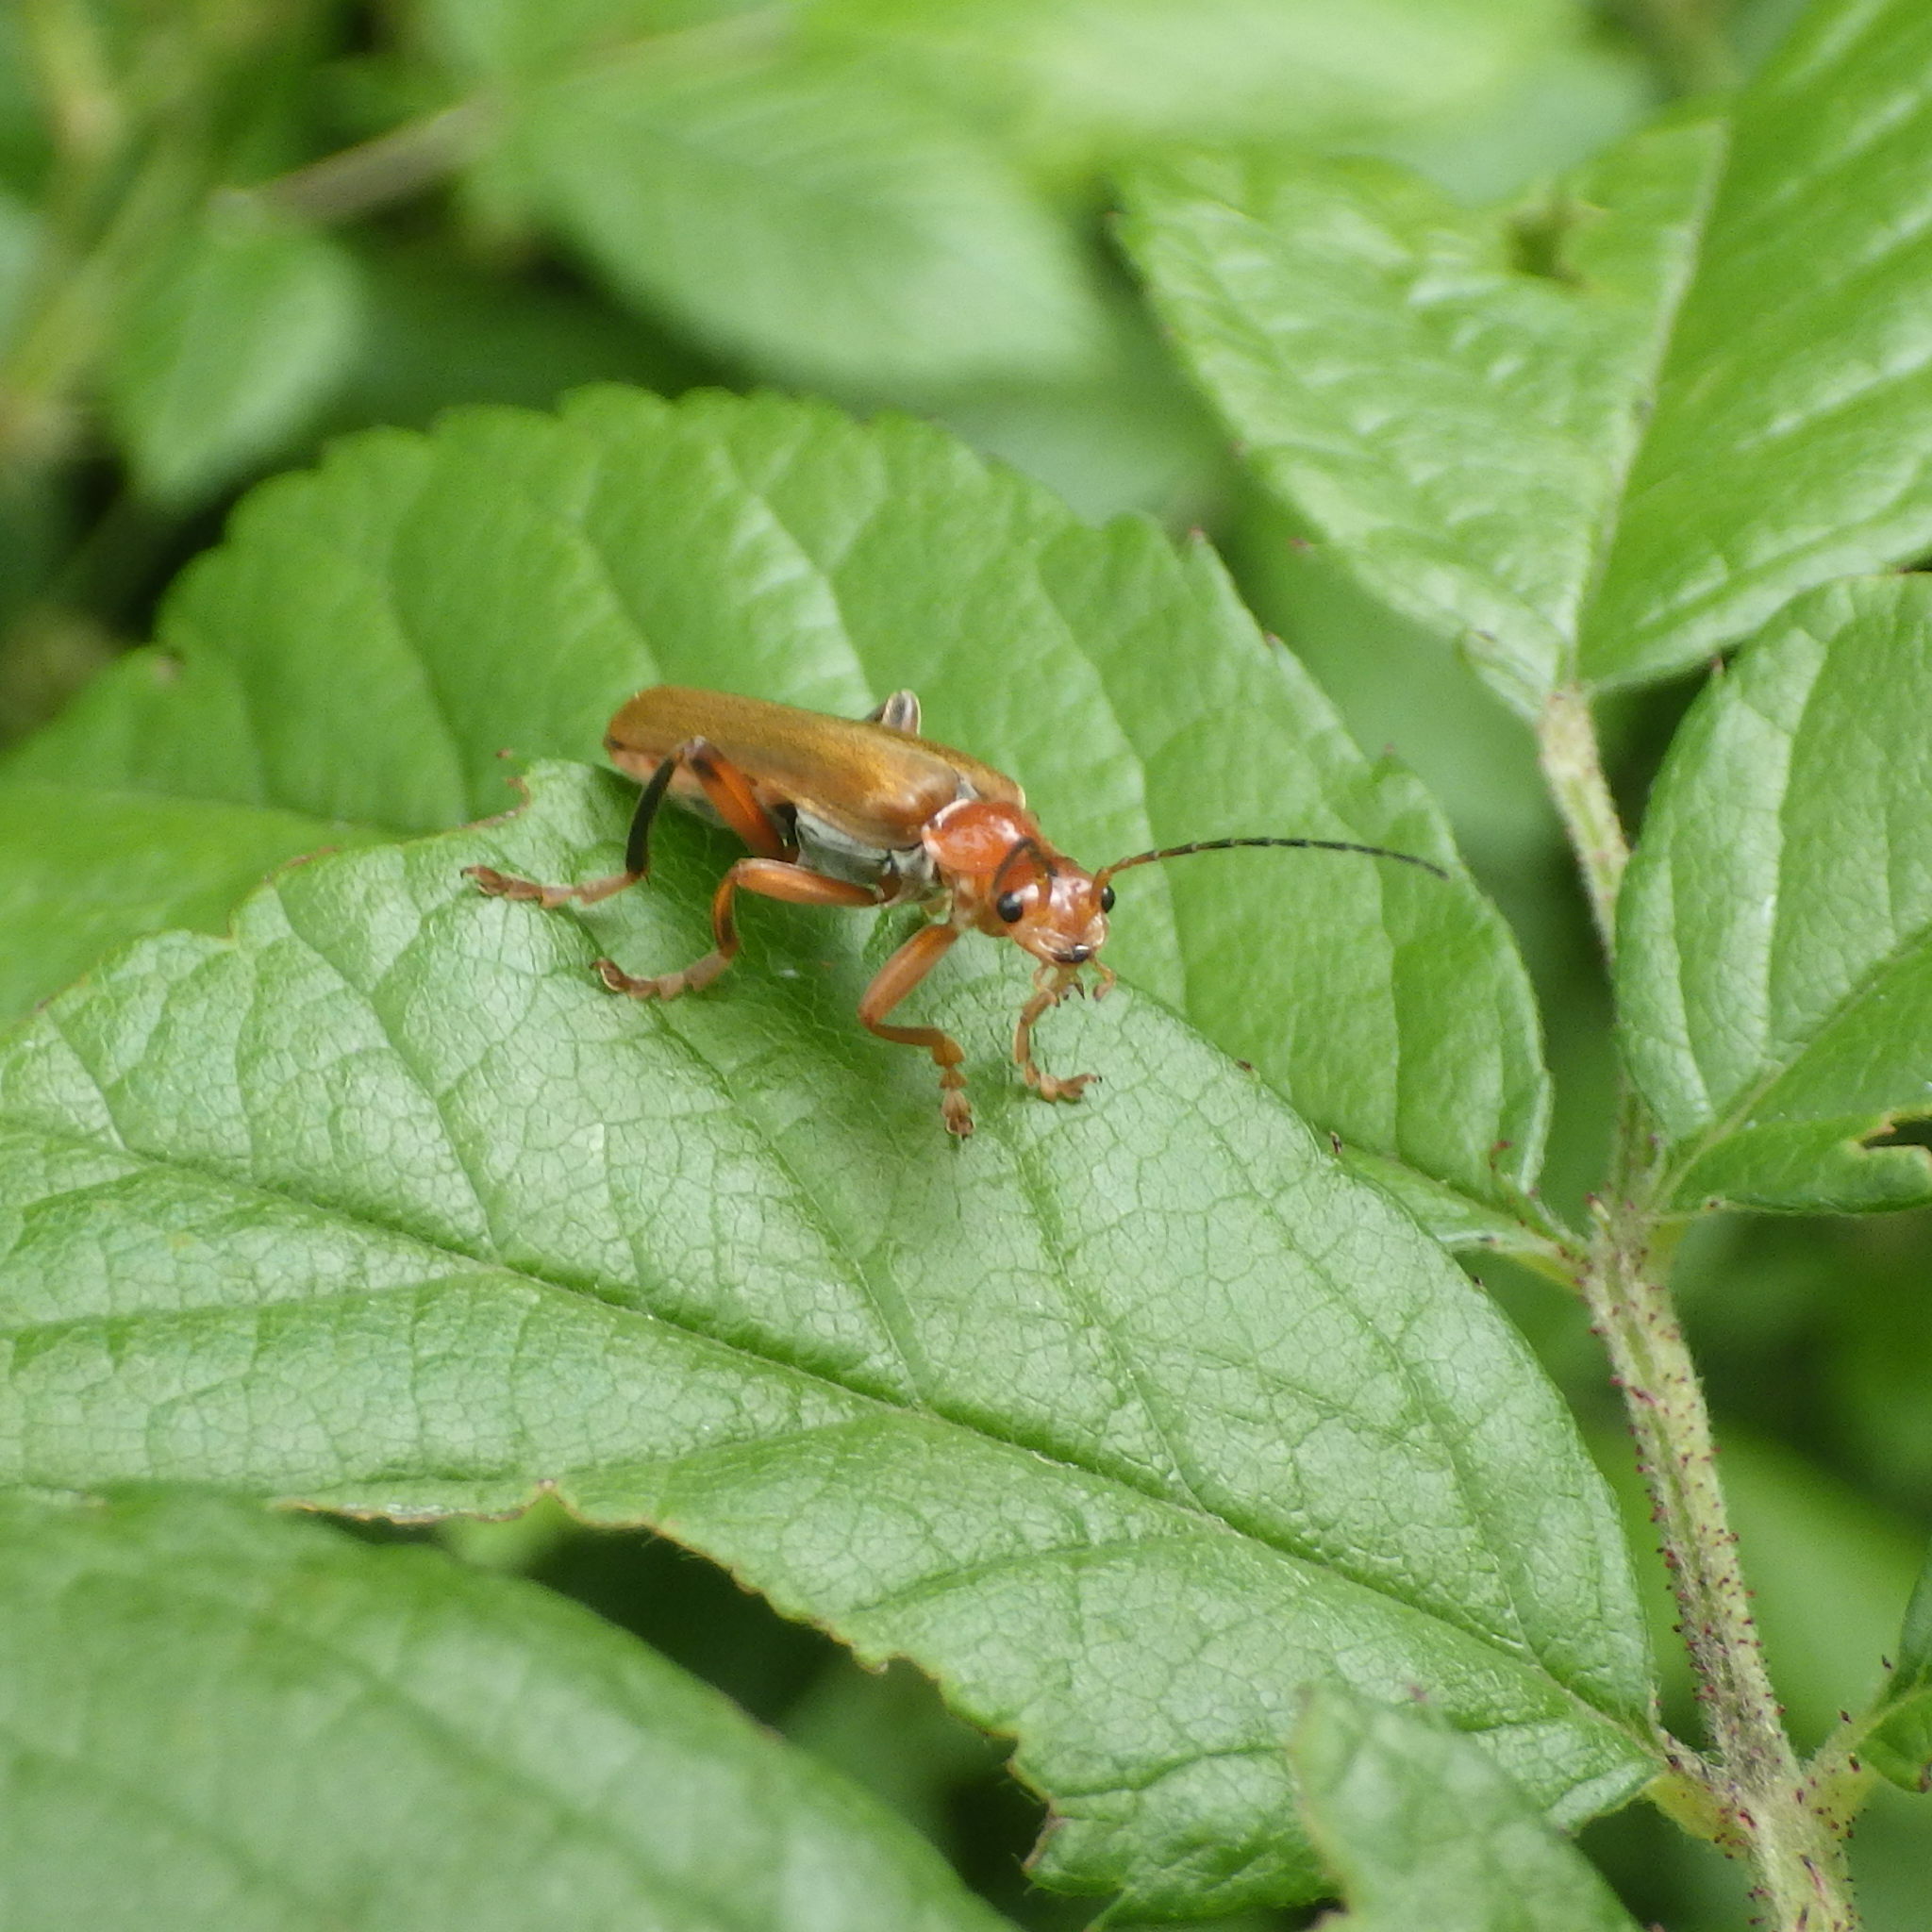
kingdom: Animalia
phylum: Arthropoda
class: Insecta
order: Coleoptera
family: Cantharidae
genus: Cantharis
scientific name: Cantharis livida
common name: Livid soldier beetle
